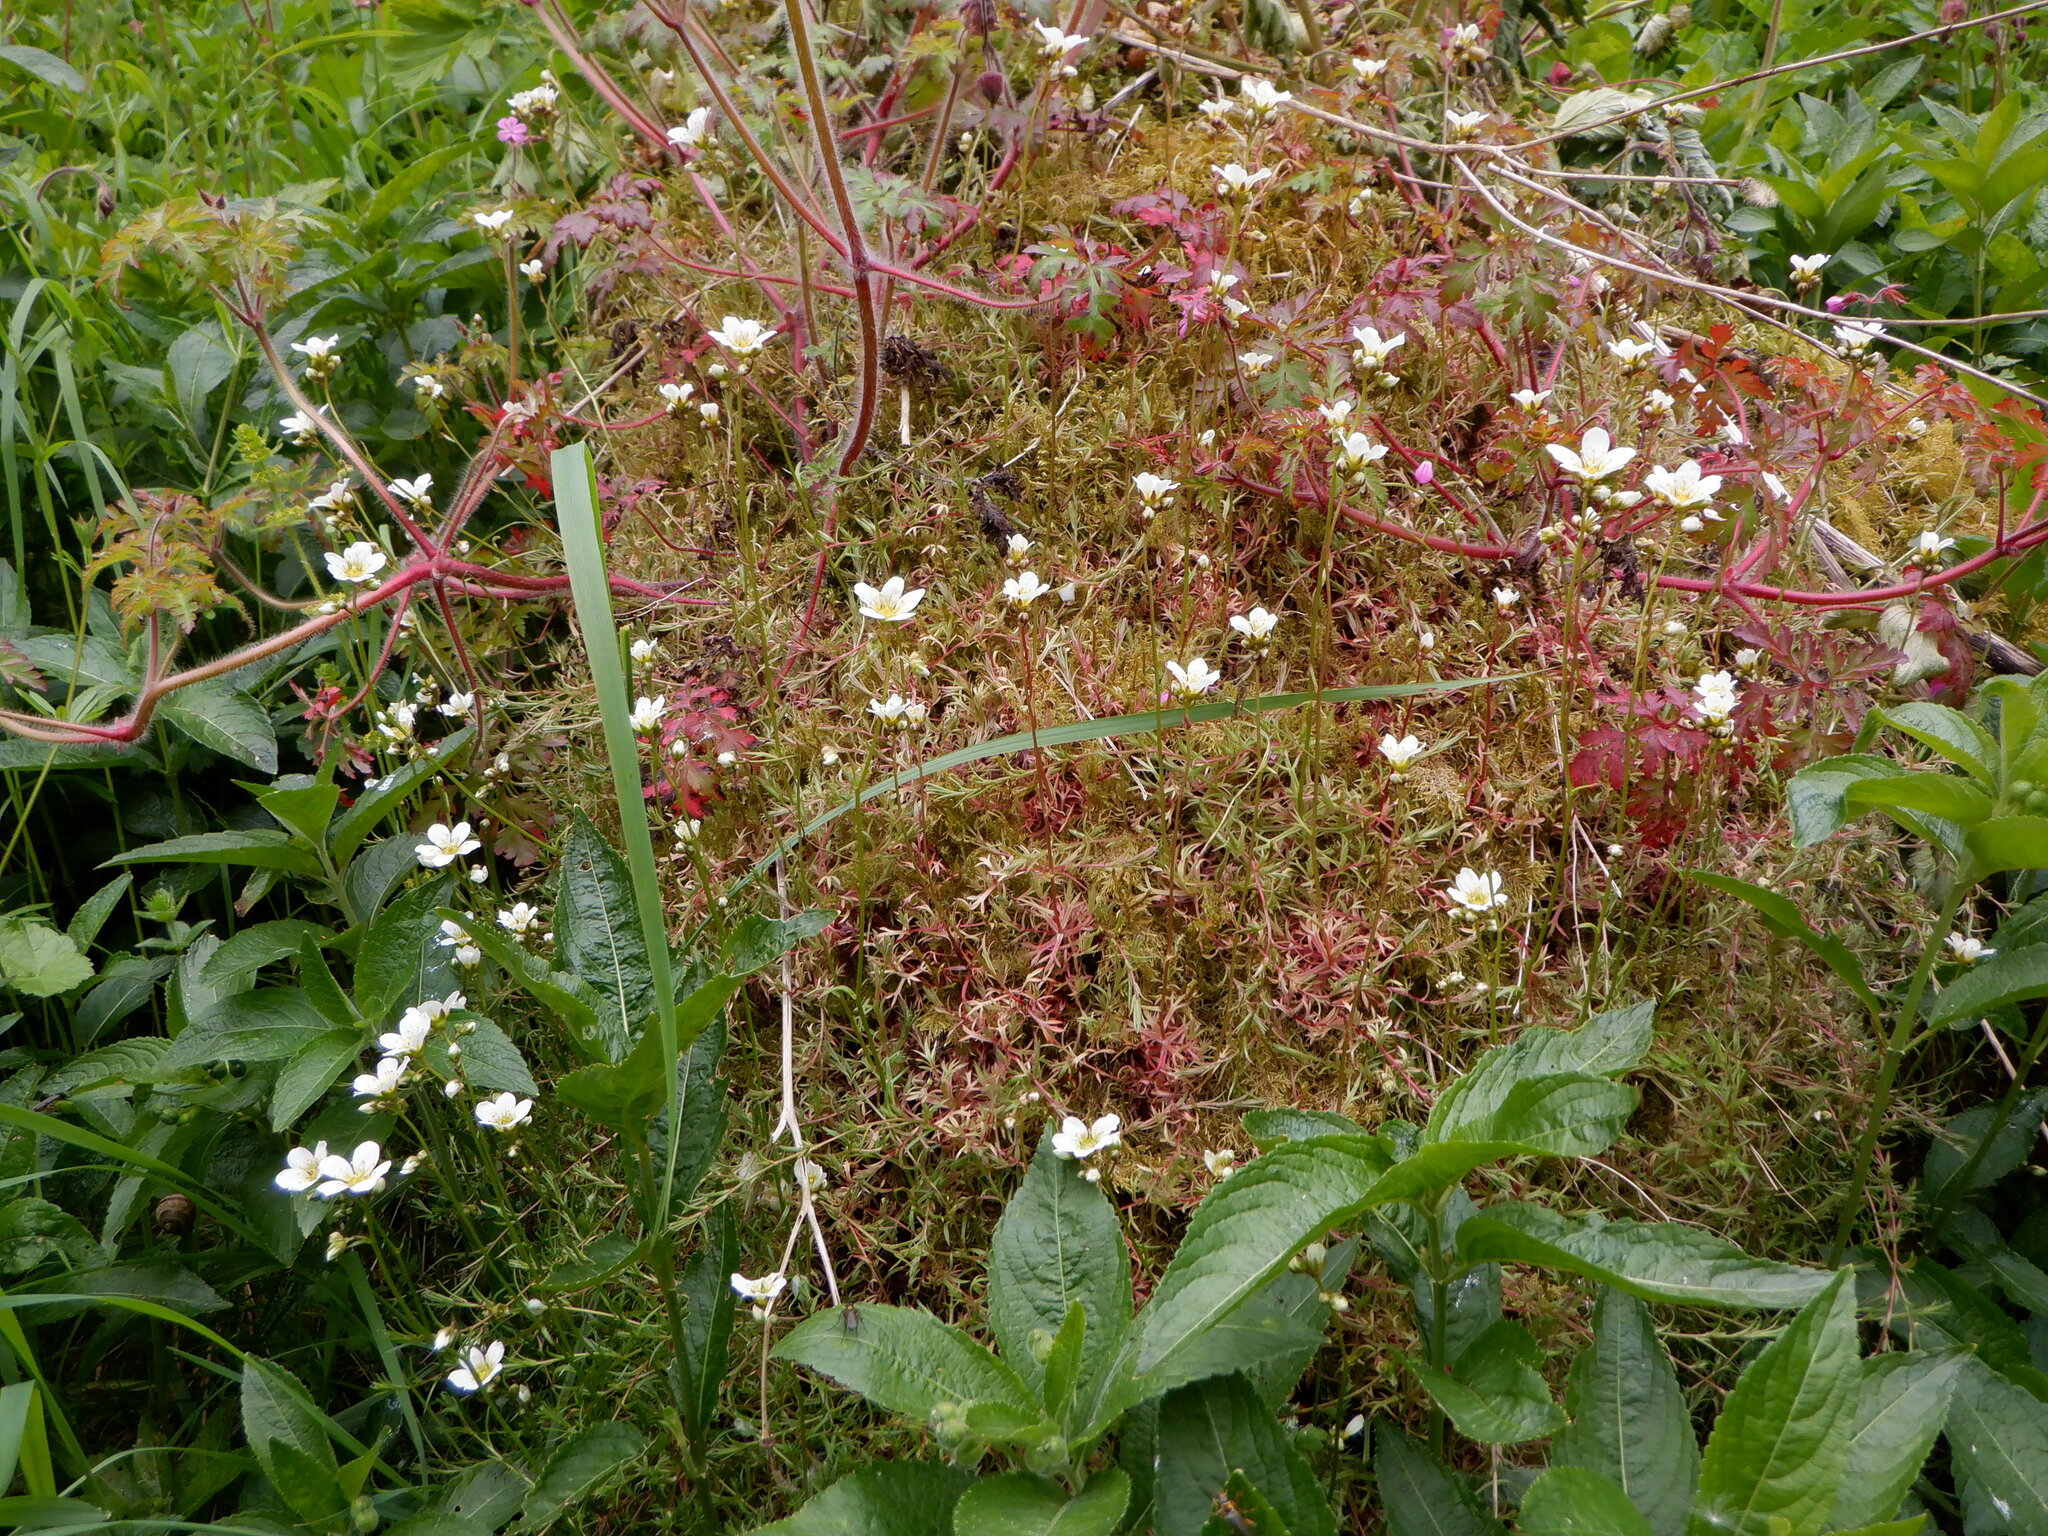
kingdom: Plantae
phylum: Tracheophyta
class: Magnoliopsida
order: Saxifragales
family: Saxifragaceae
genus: Saxifraga
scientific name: Saxifraga hypnoides
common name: Mossy saxifrage
